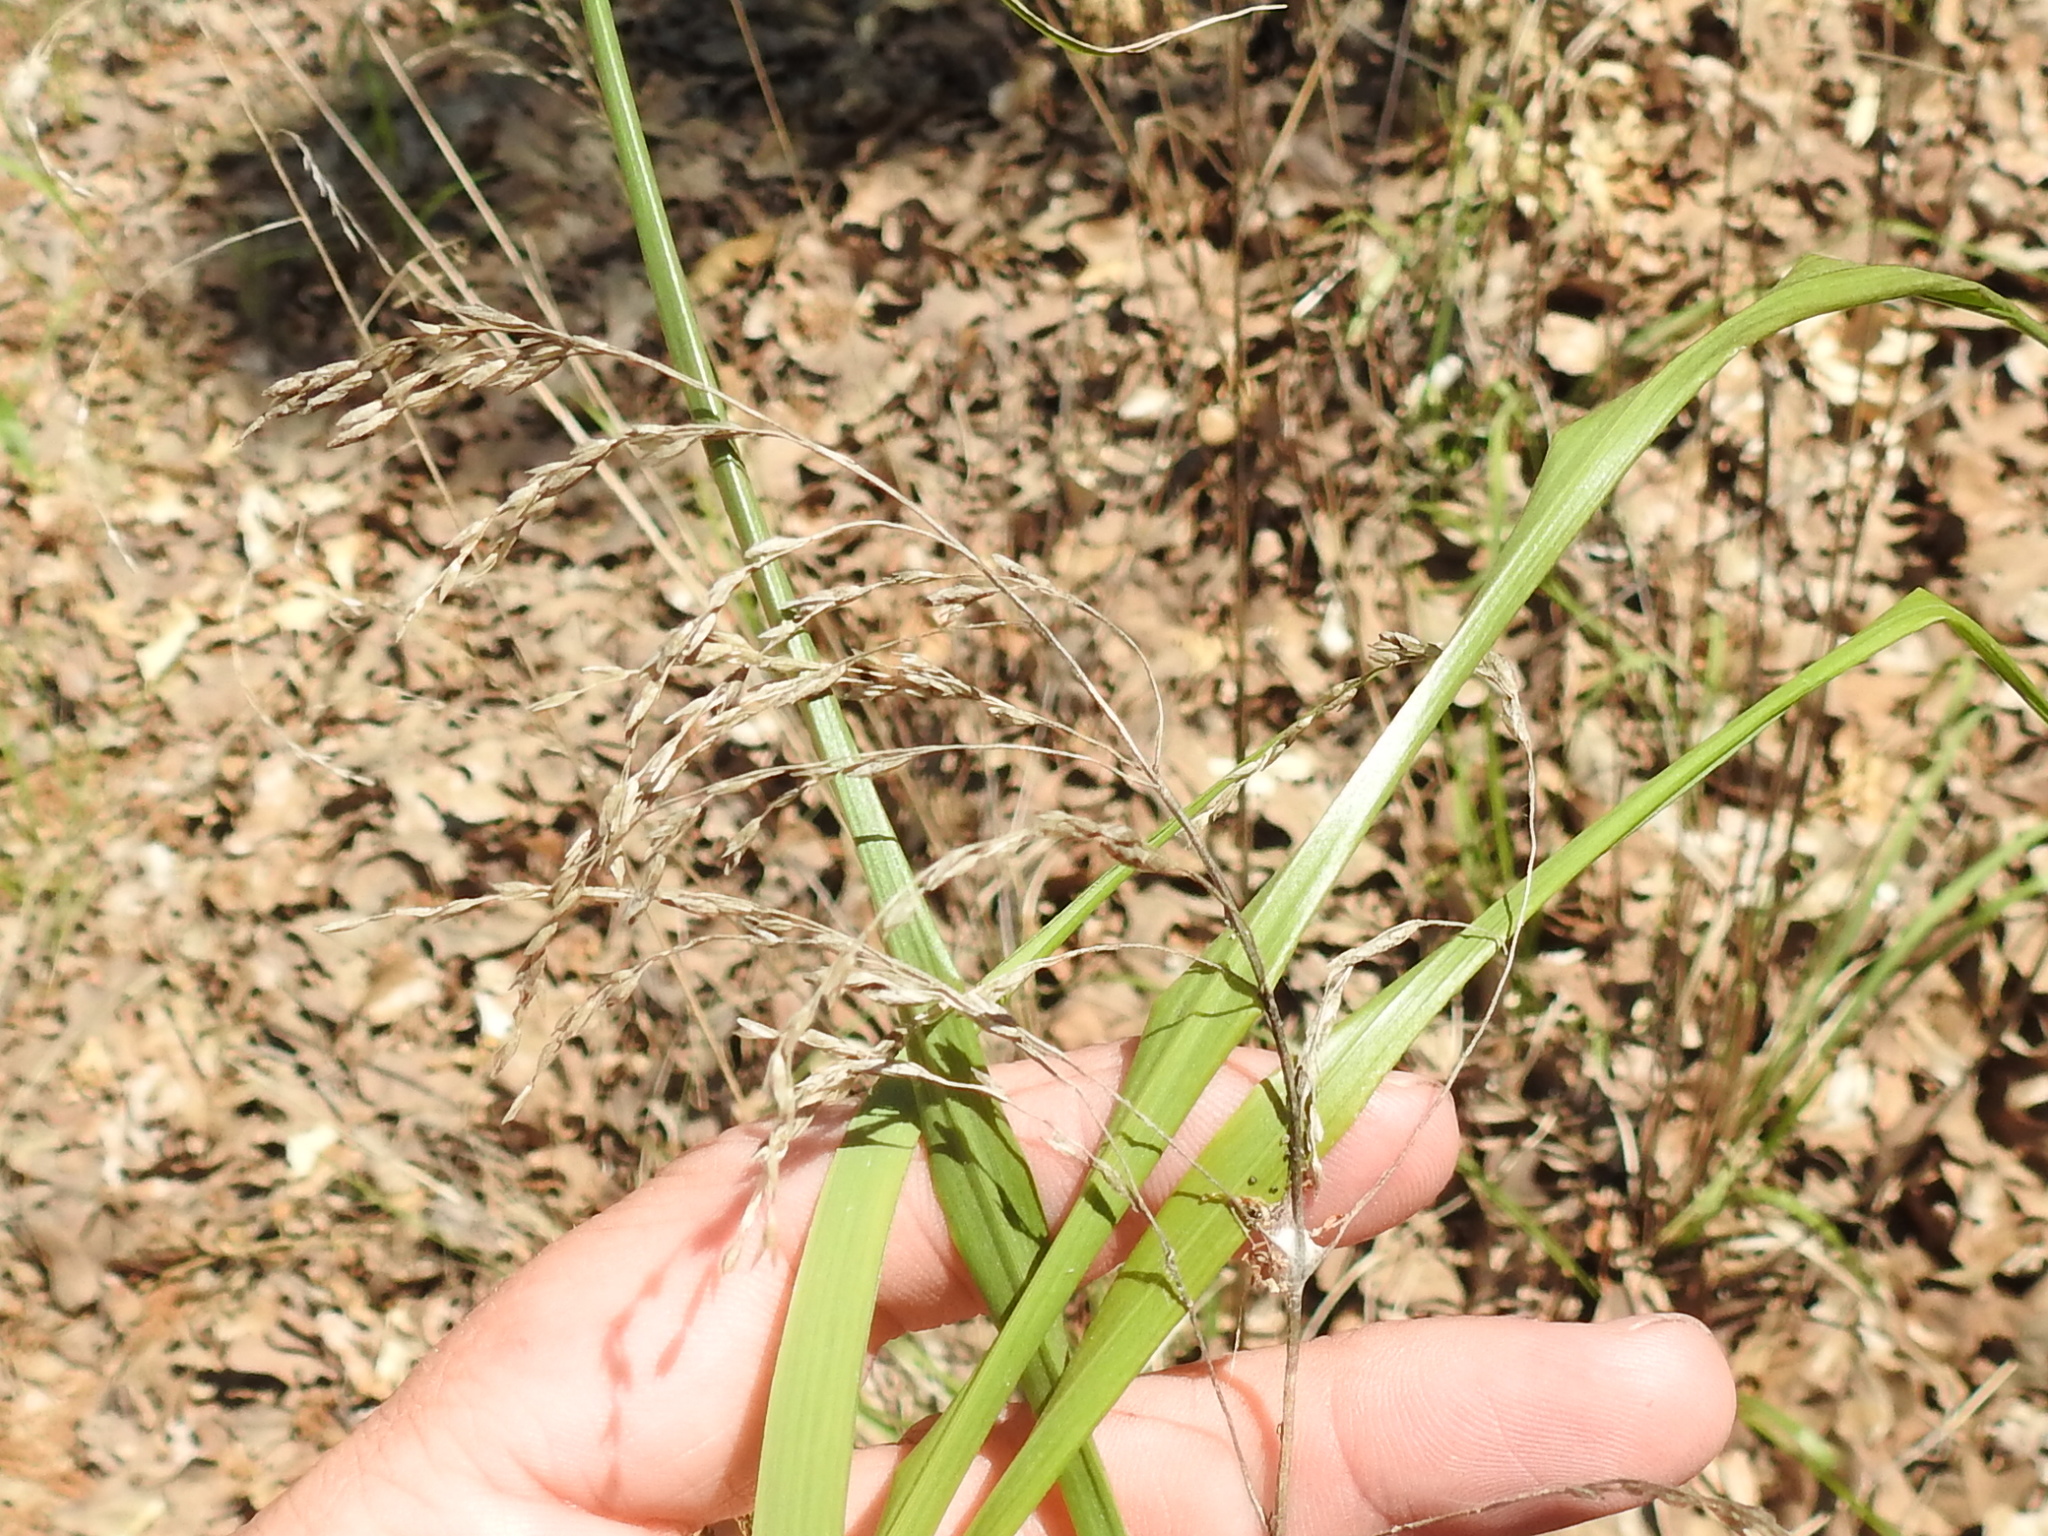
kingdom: Plantae
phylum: Tracheophyta
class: Liliopsida
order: Poales
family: Poaceae
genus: Tridens
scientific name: Tridens flavus
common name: Purpletop
